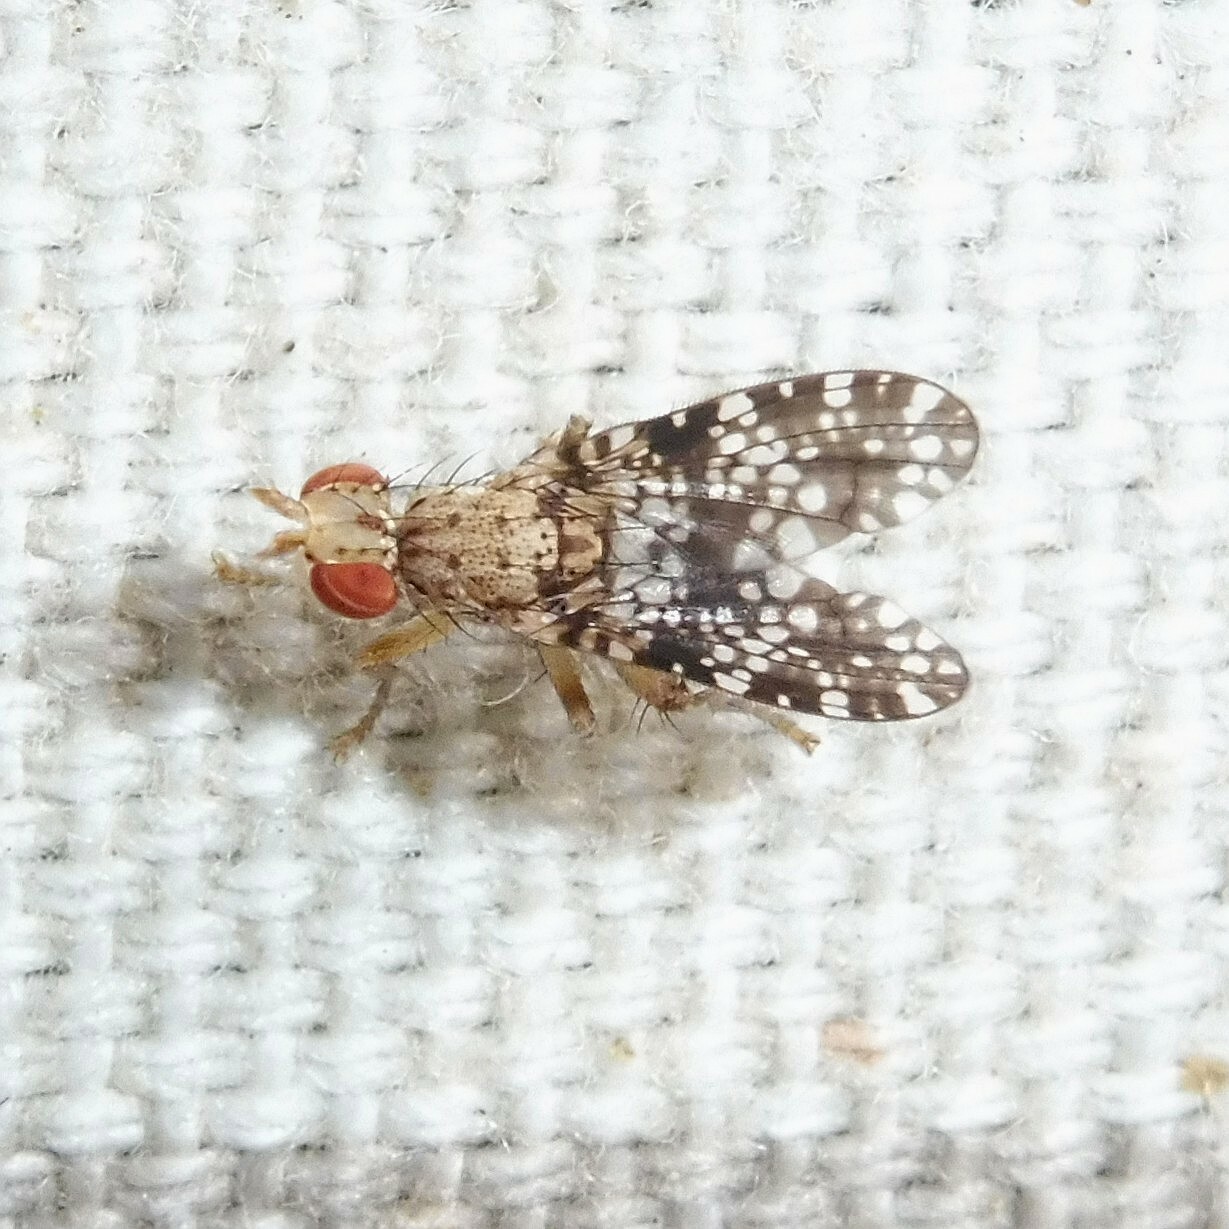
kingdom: Animalia
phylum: Arthropoda
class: Insecta
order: Diptera
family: Sciomyzidae
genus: Trypetoptera
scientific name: Trypetoptera punctulata
